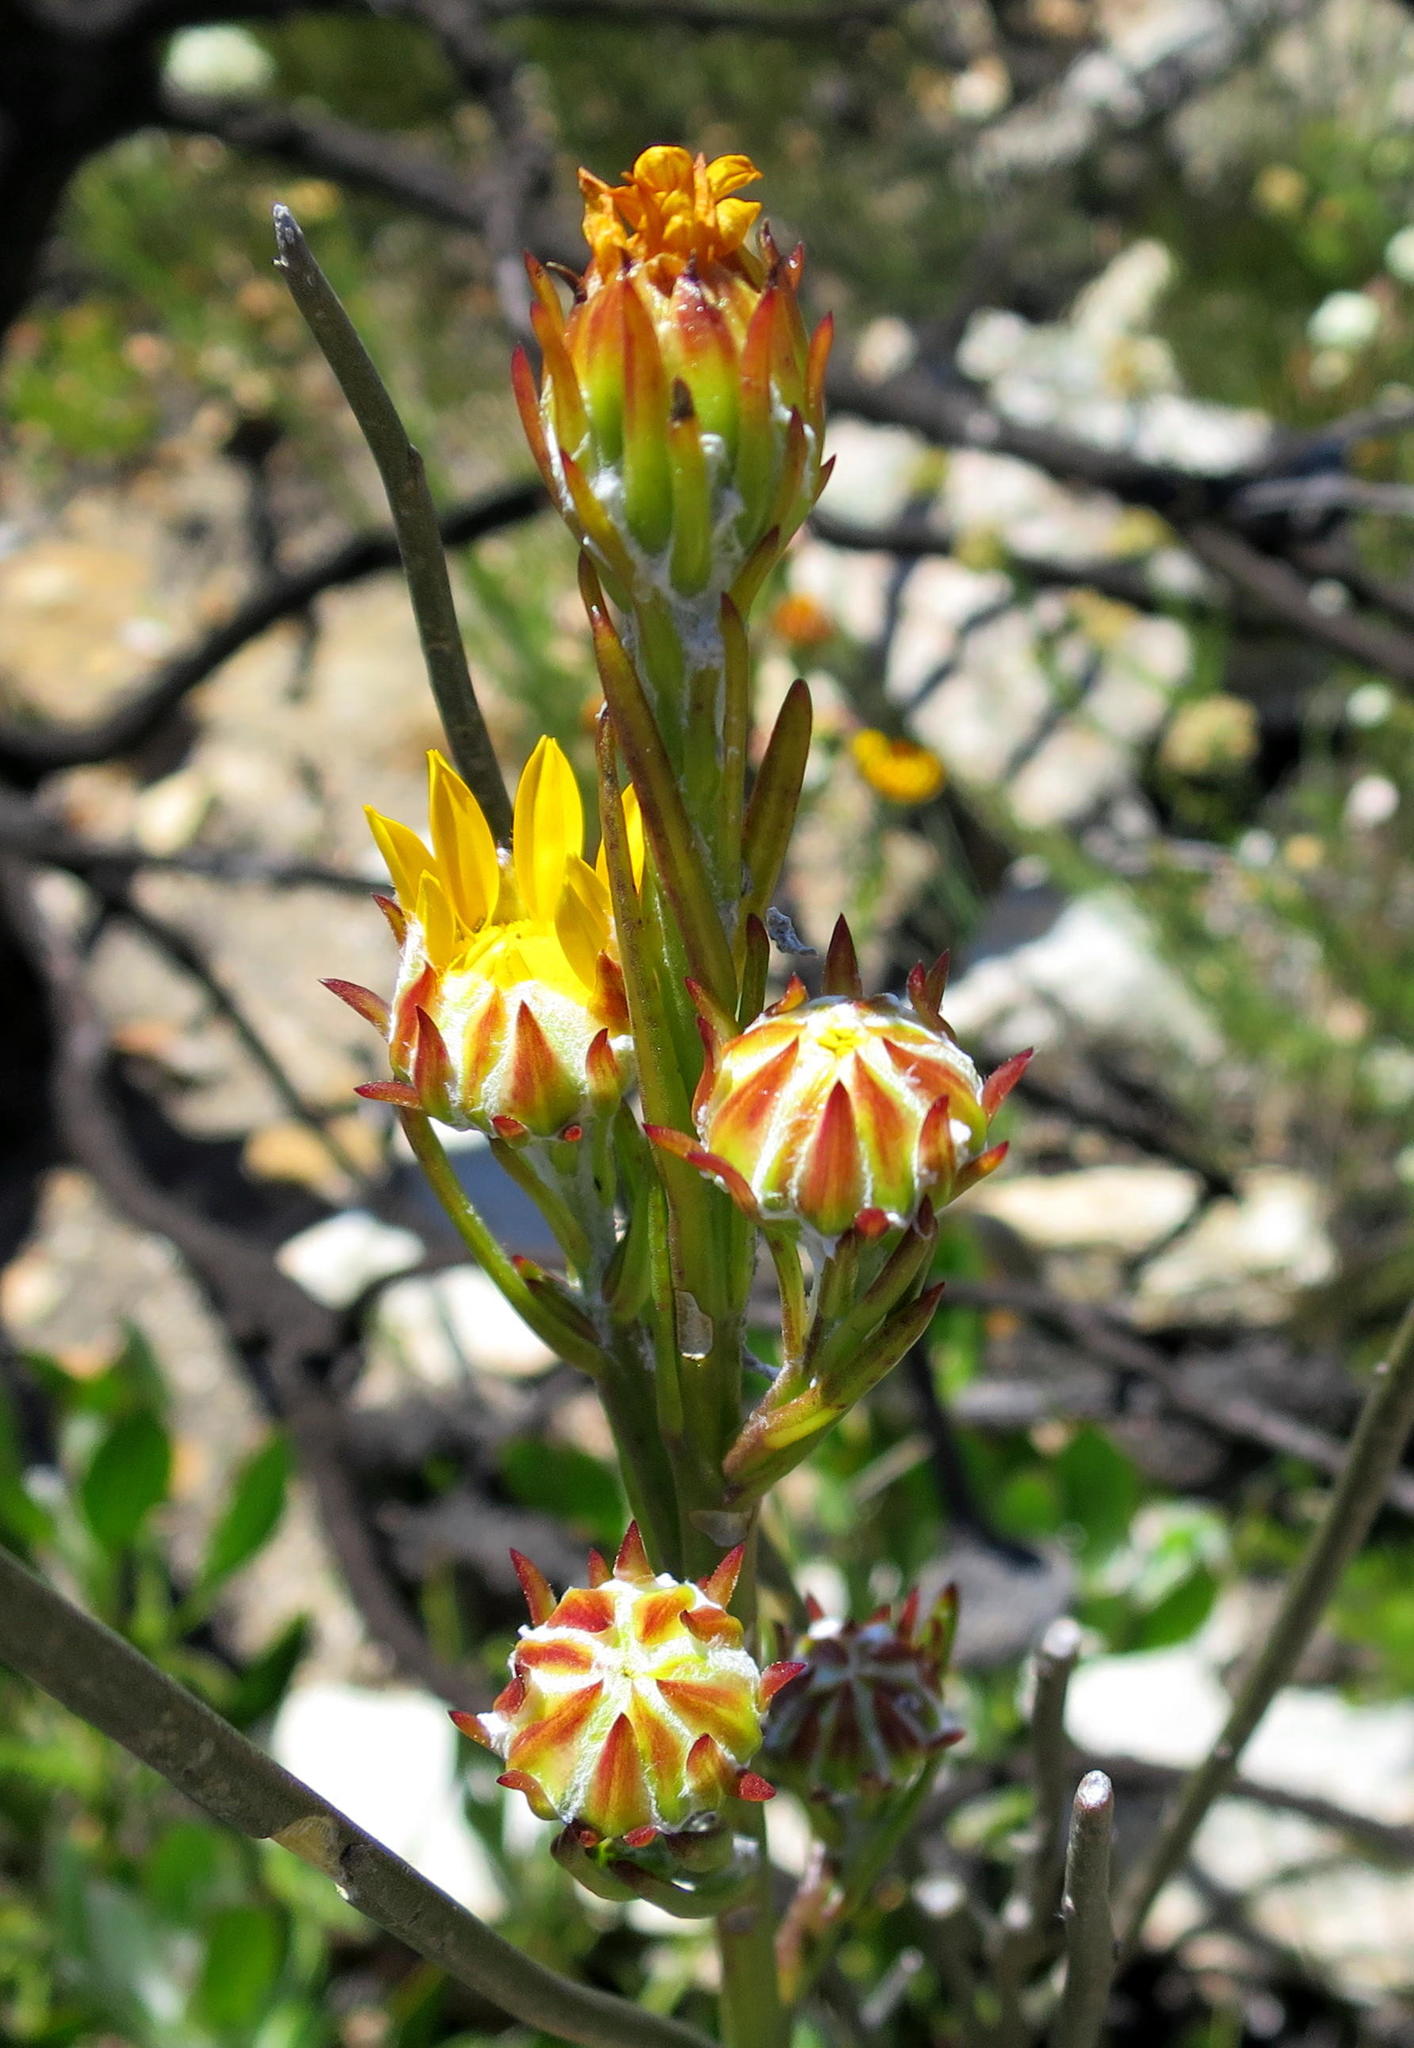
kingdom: Plantae
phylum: Tracheophyta
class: Magnoliopsida
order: Asterales
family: Asteraceae
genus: Osteospermum
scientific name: Osteospermum junceum
